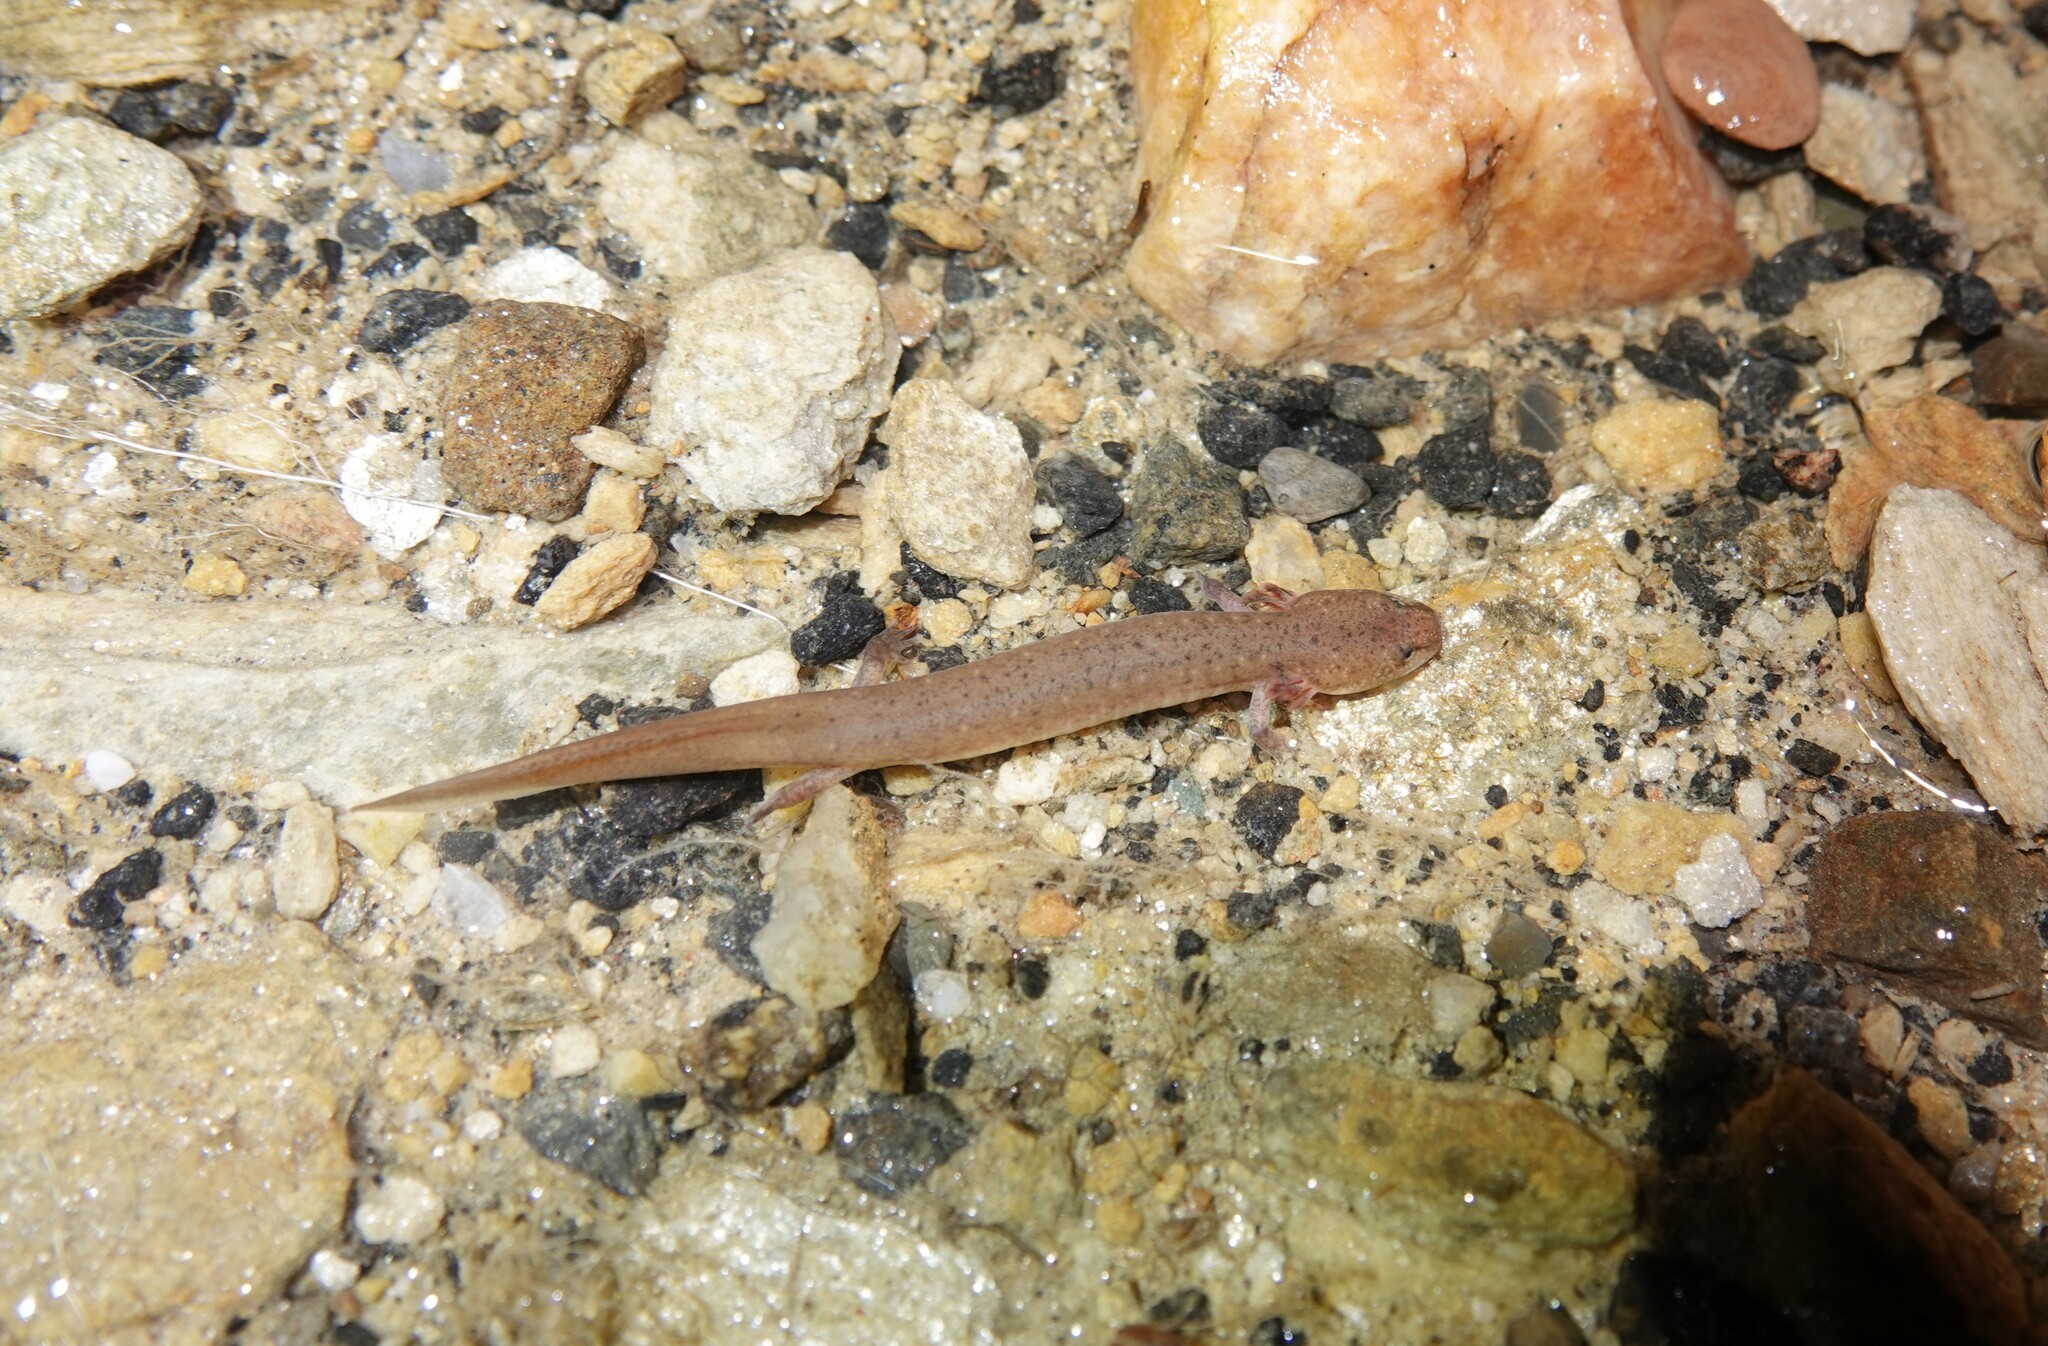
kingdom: Animalia
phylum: Chordata
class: Amphibia
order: Caudata
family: Plethodontidae
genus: Pseudotriton
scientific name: Pseudotriton ruber
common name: Red salamander
